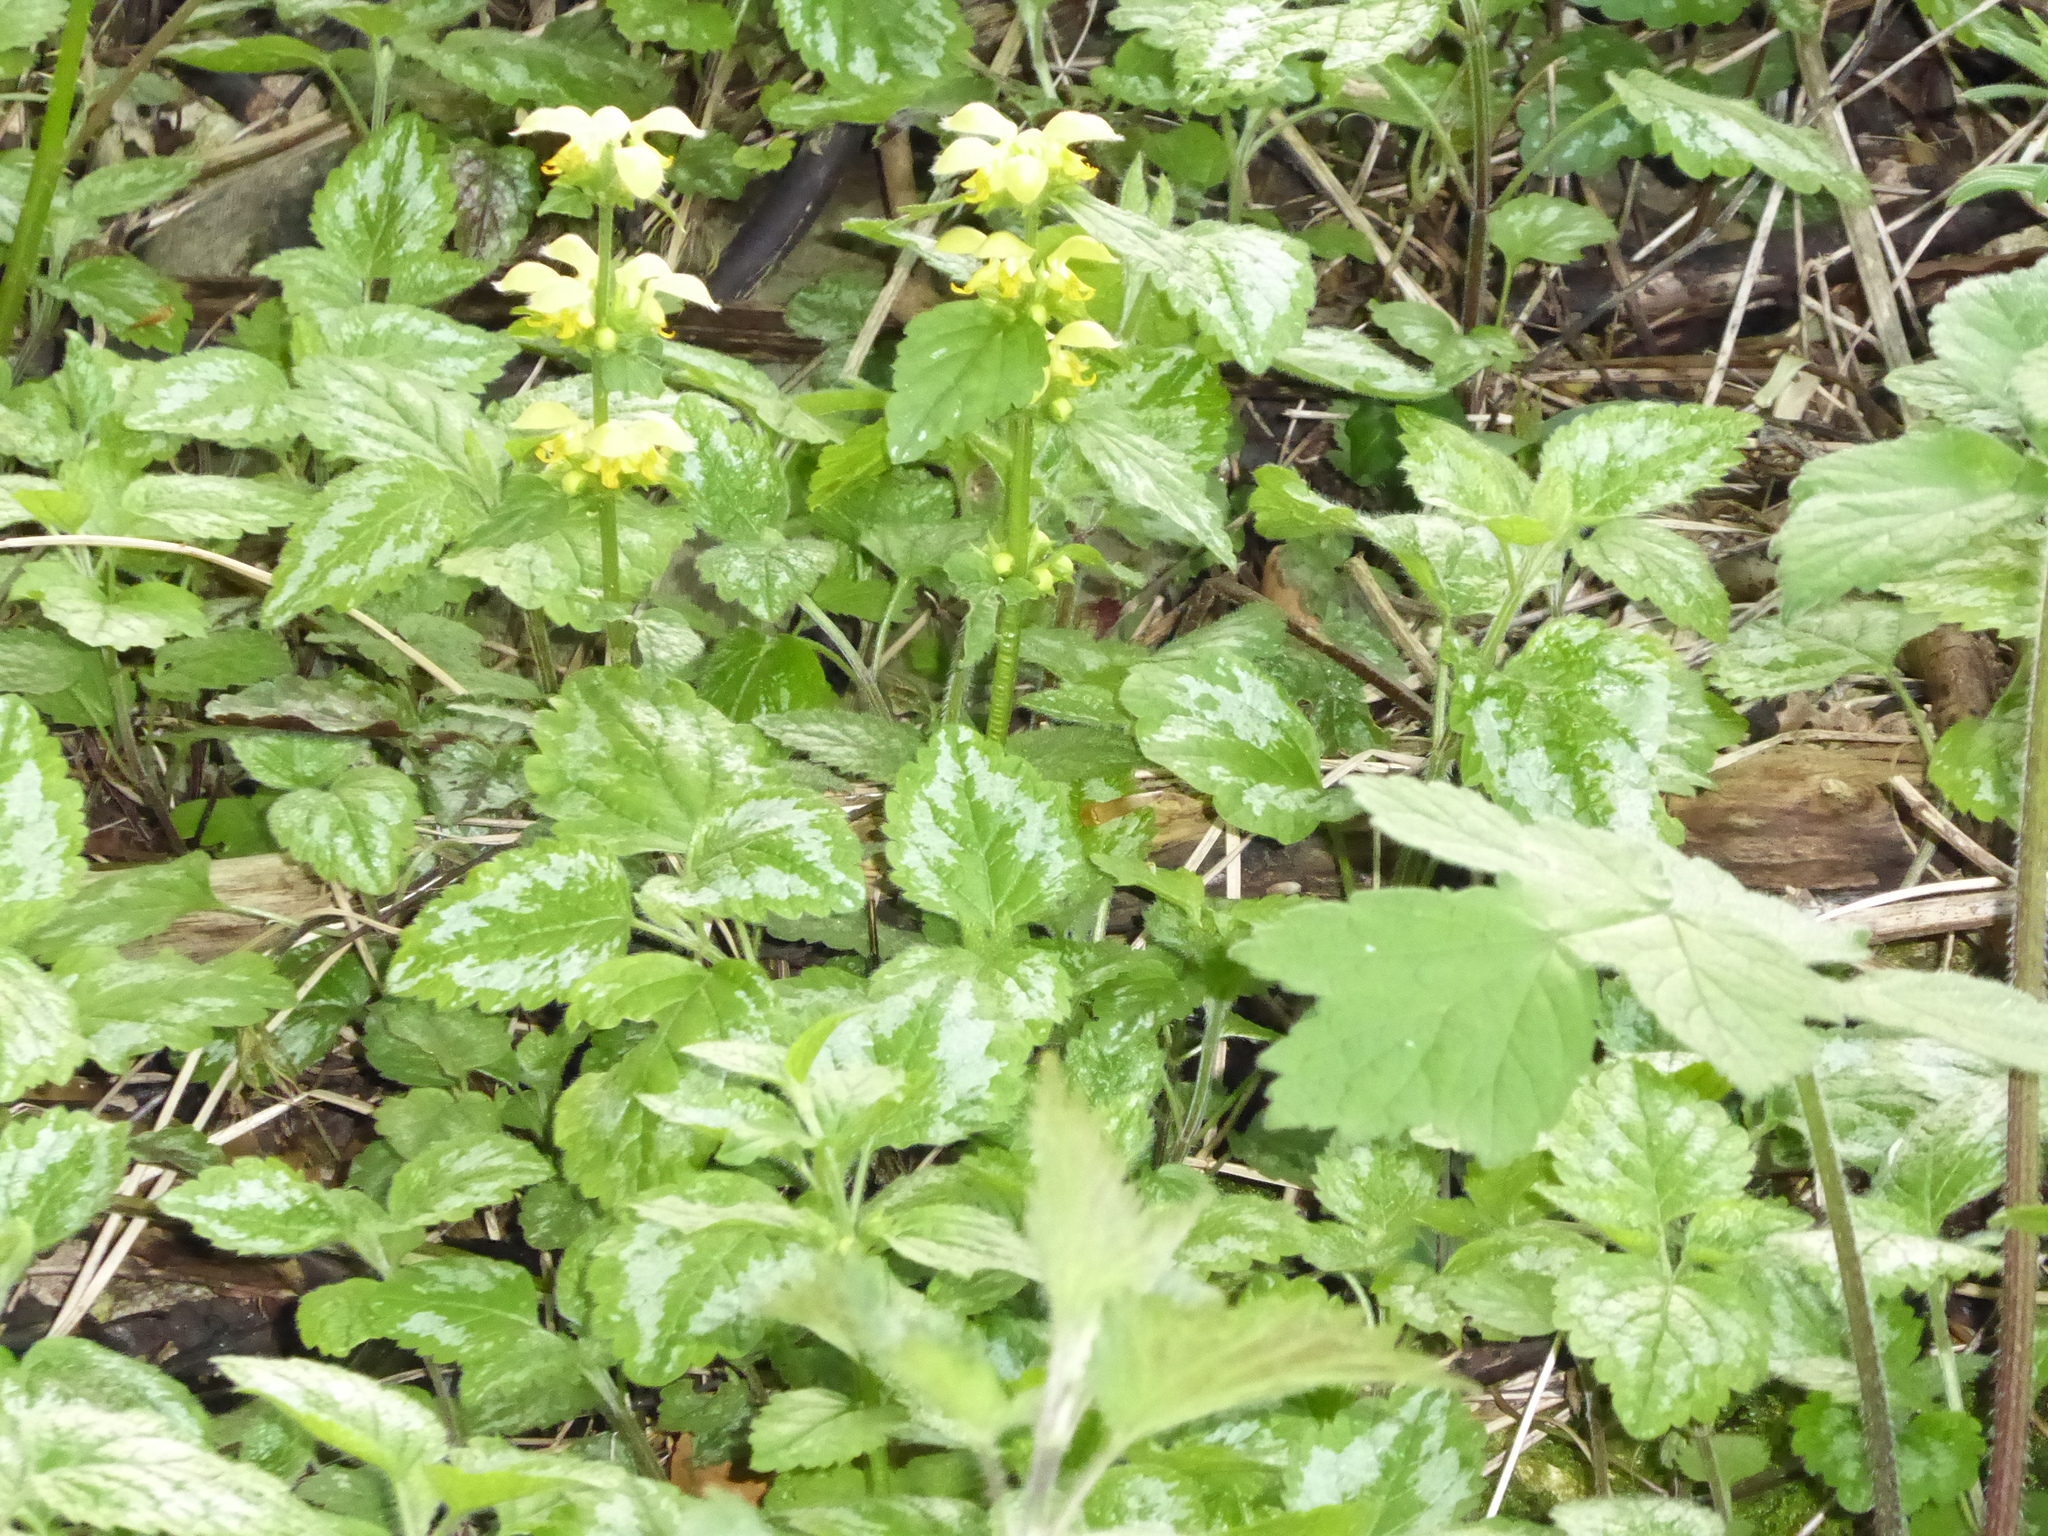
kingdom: Plantae
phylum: Tracheophyta
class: Magnoliopsida
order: Lamiales
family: Lamiaceae
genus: Lamium
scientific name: Lamium galeobdolon
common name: Yellow archangel
